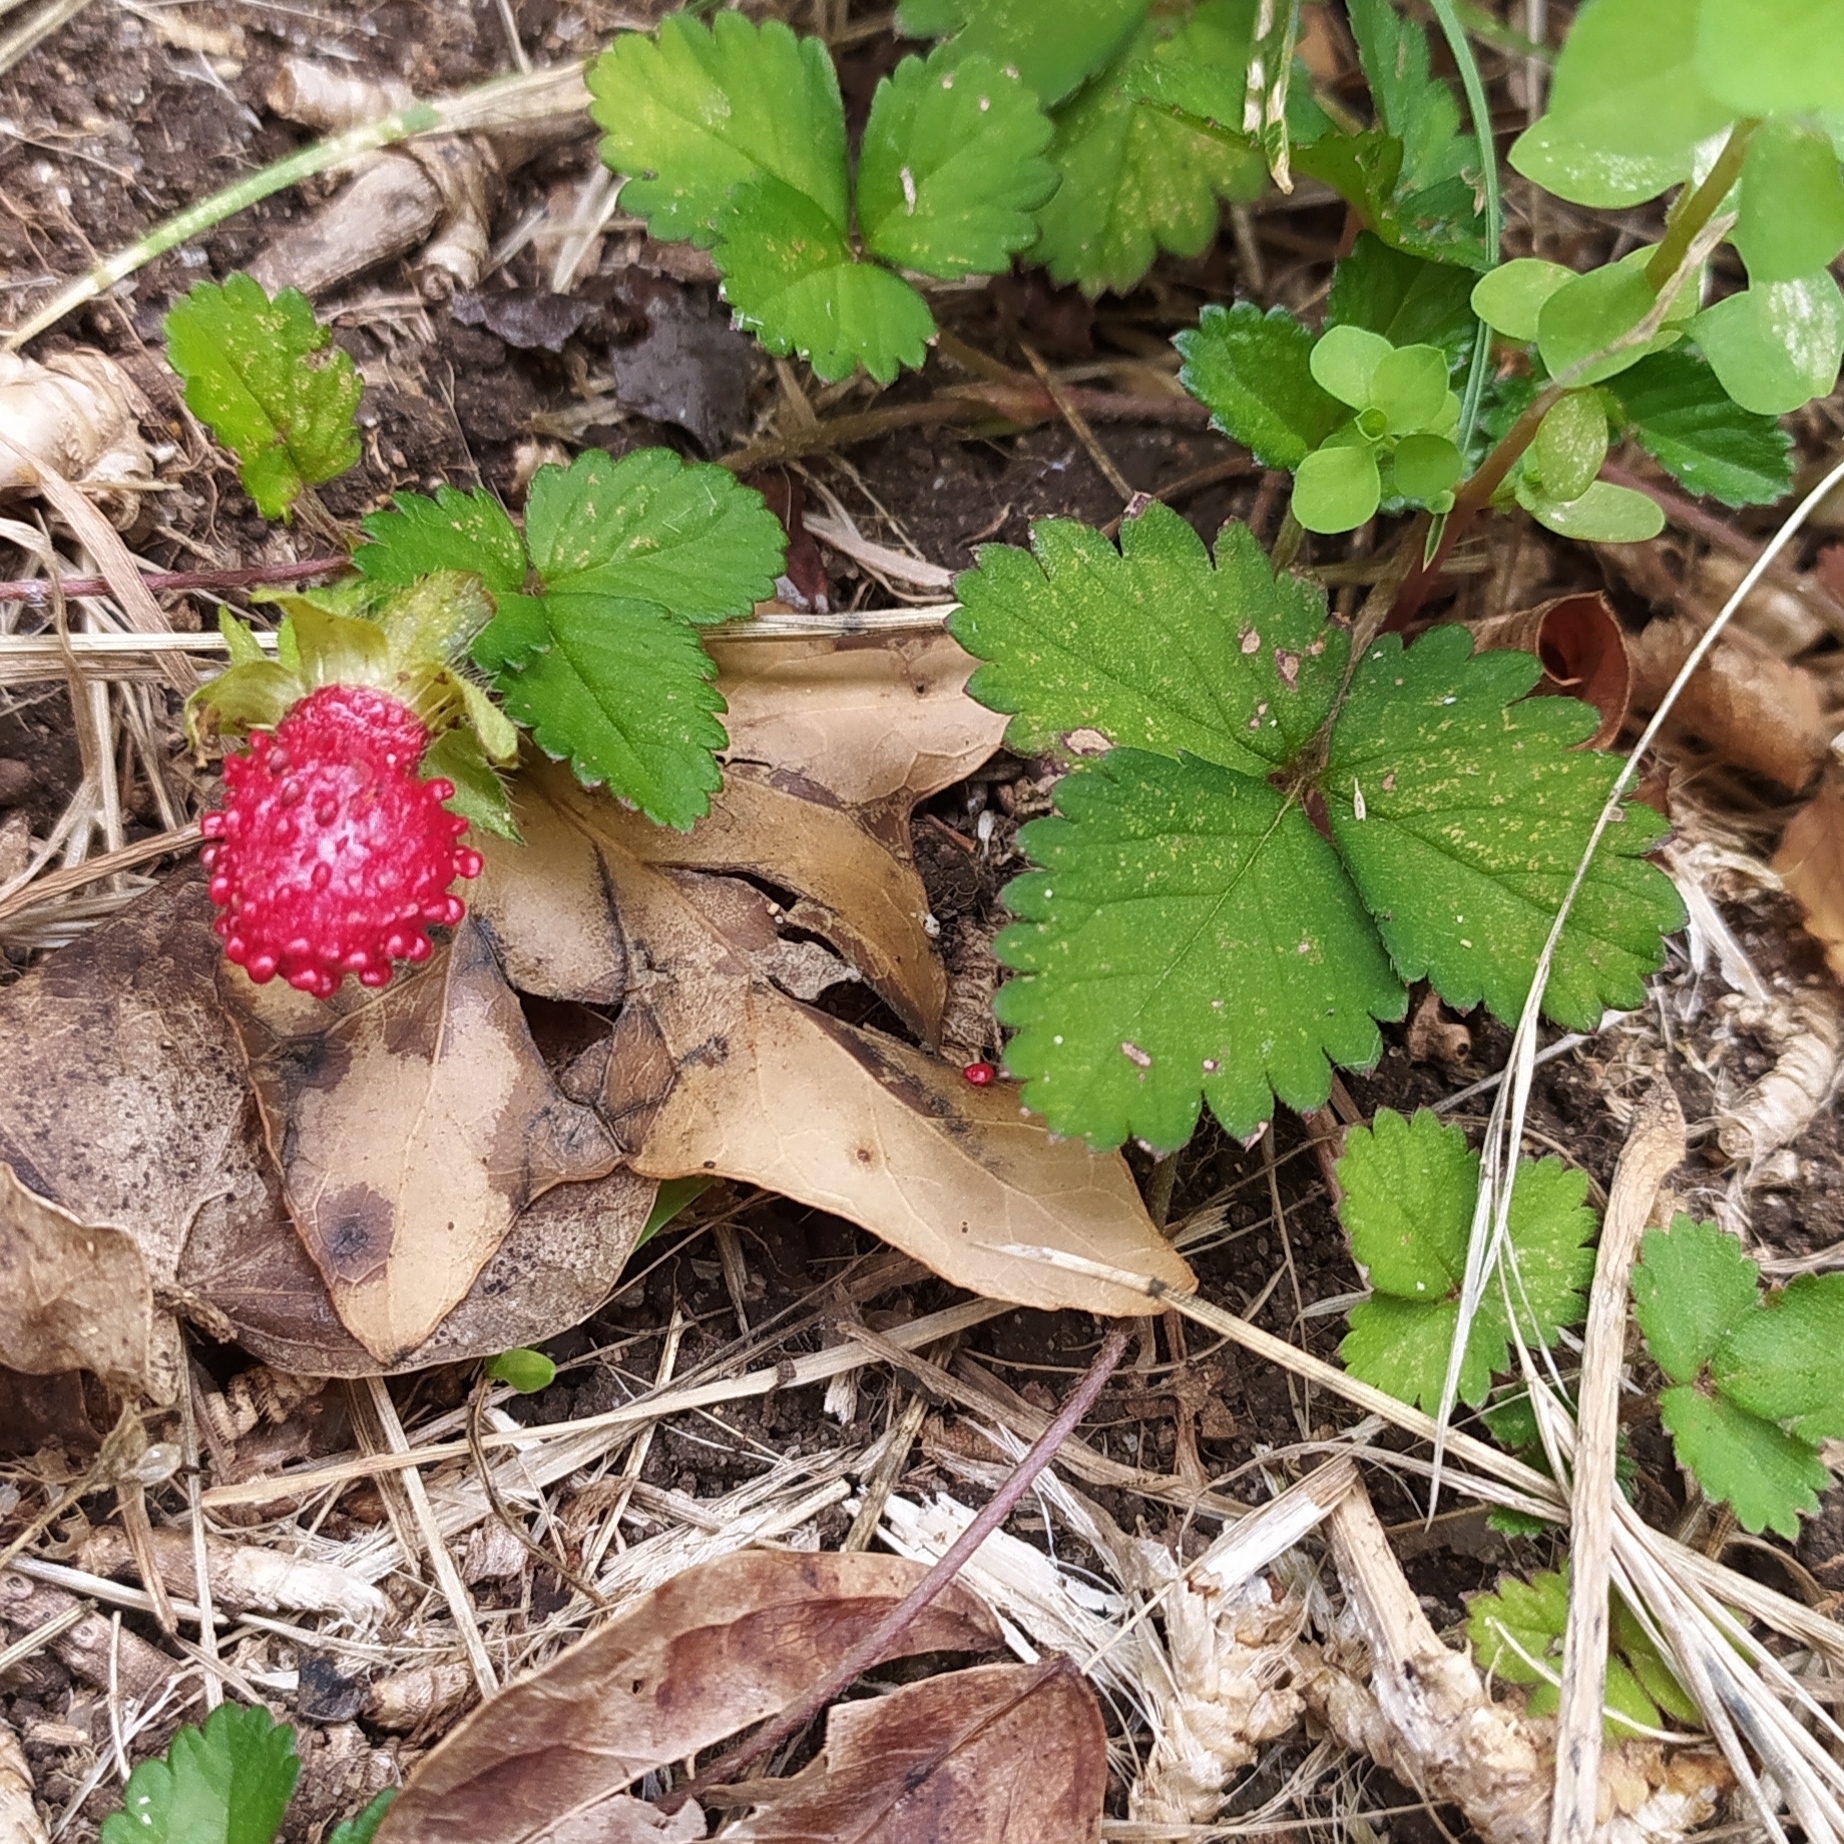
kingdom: Plantae
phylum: Tracheophyta
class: Magnoliopsida
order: Rosales
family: Rosaceae
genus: Potentilla
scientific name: Potentilla indica
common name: Yellow-flowered strawberry
